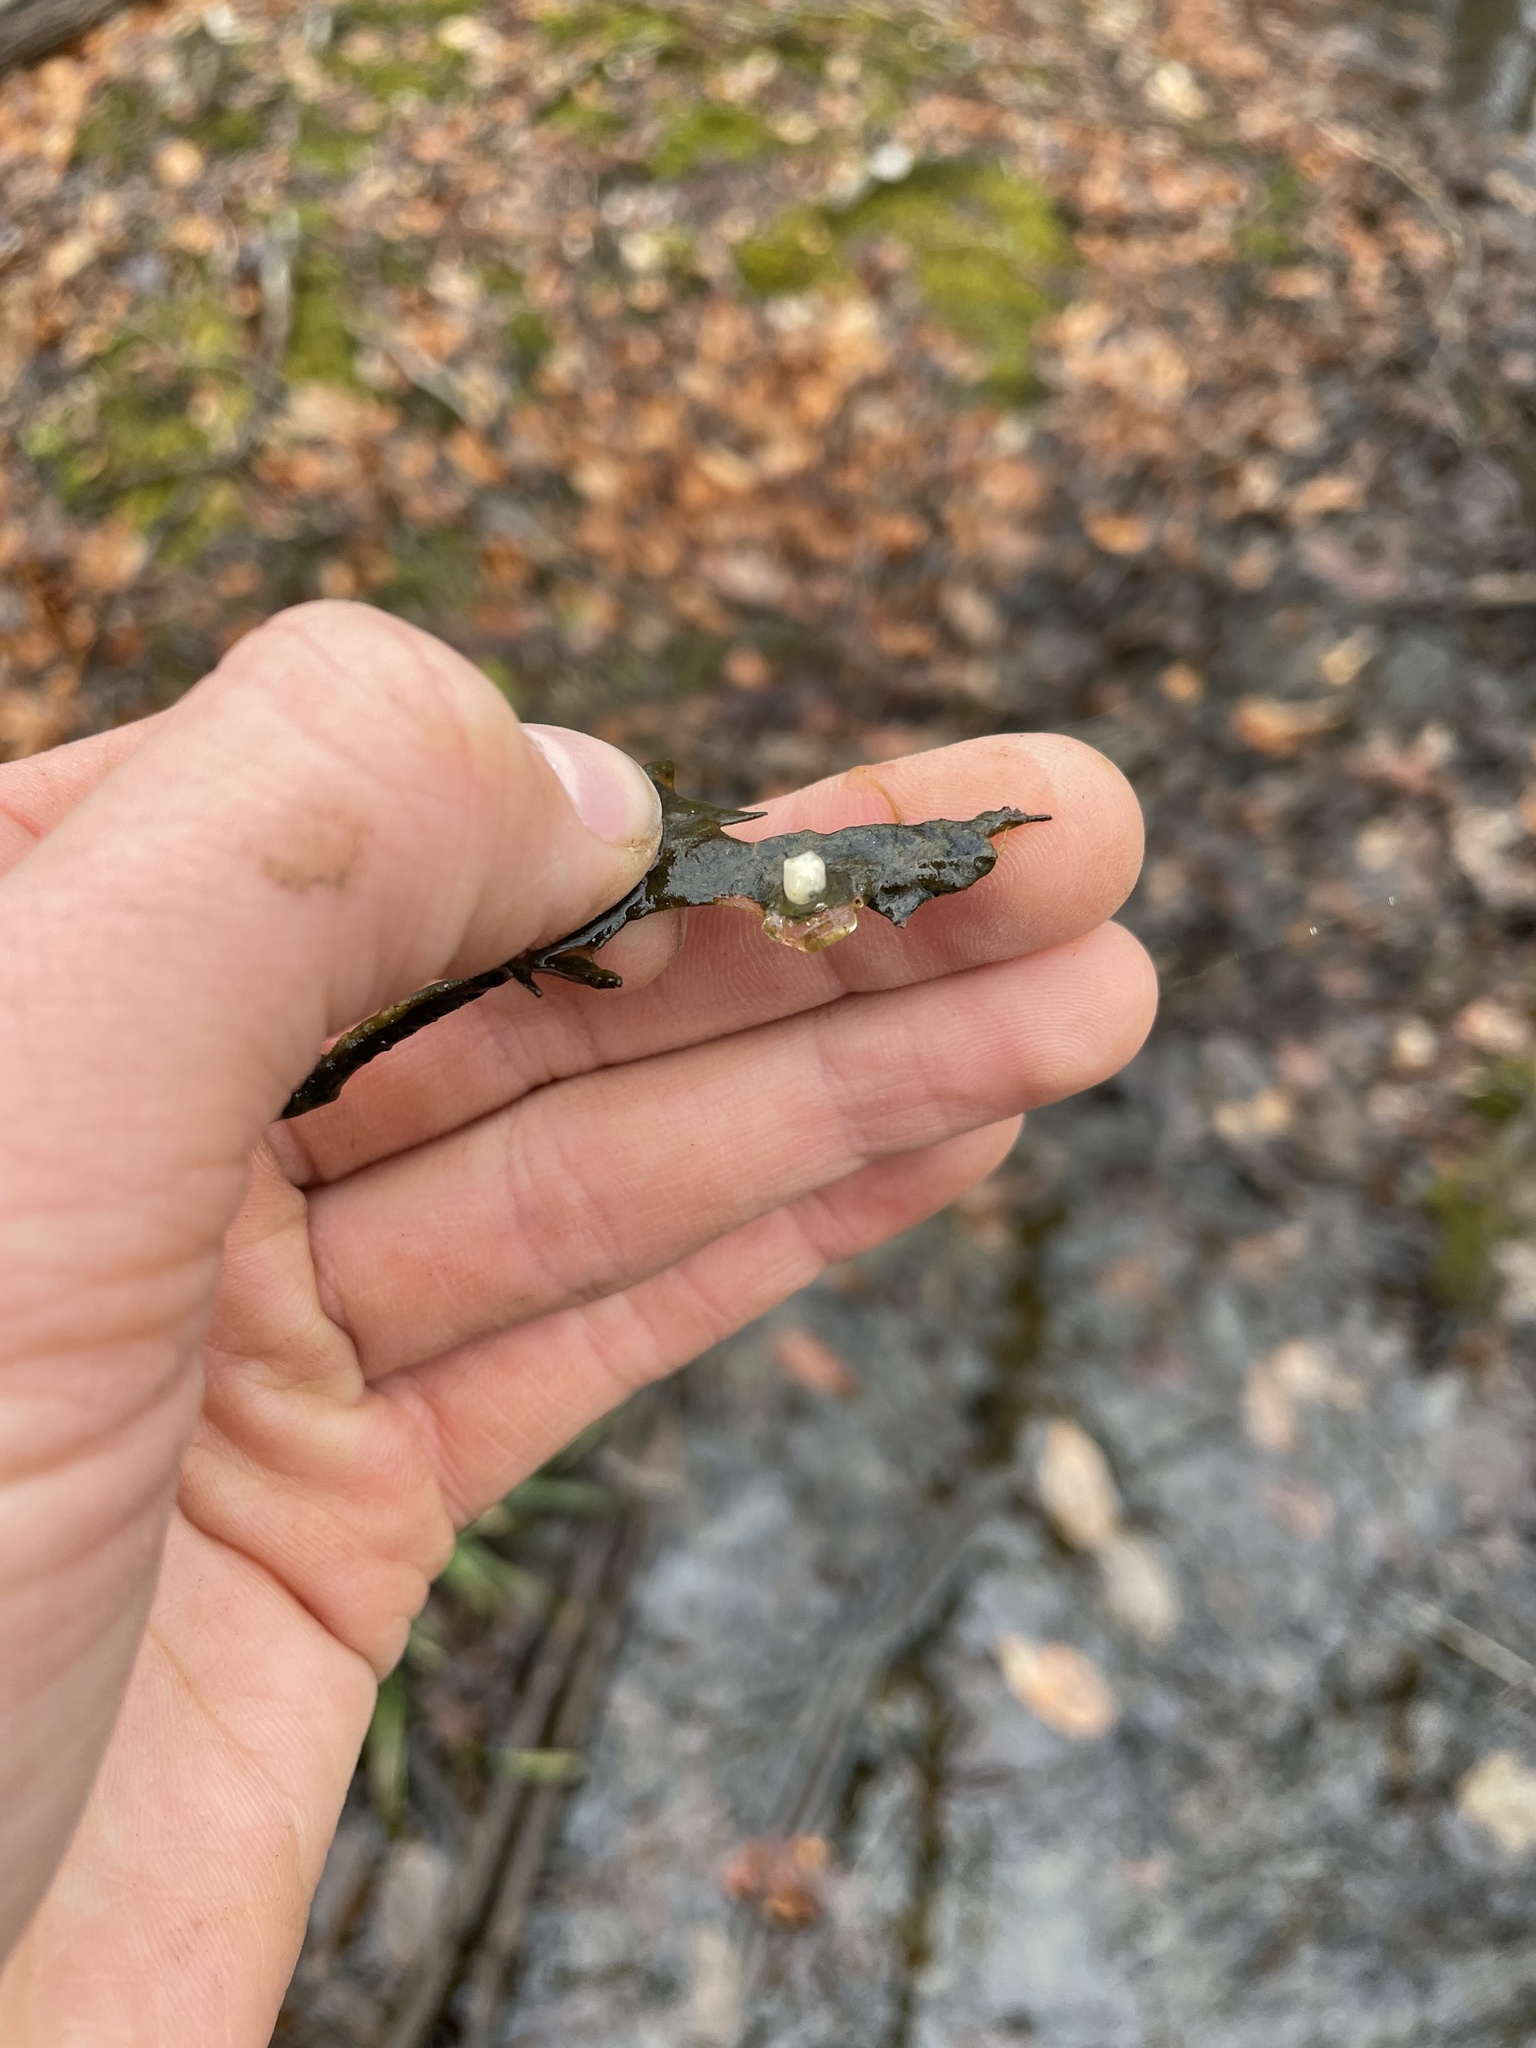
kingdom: Animalia
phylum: Chordata
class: Amphibia
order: Caudata
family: Ambystomatidae
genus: Ambystoma
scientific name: Ambystoma
